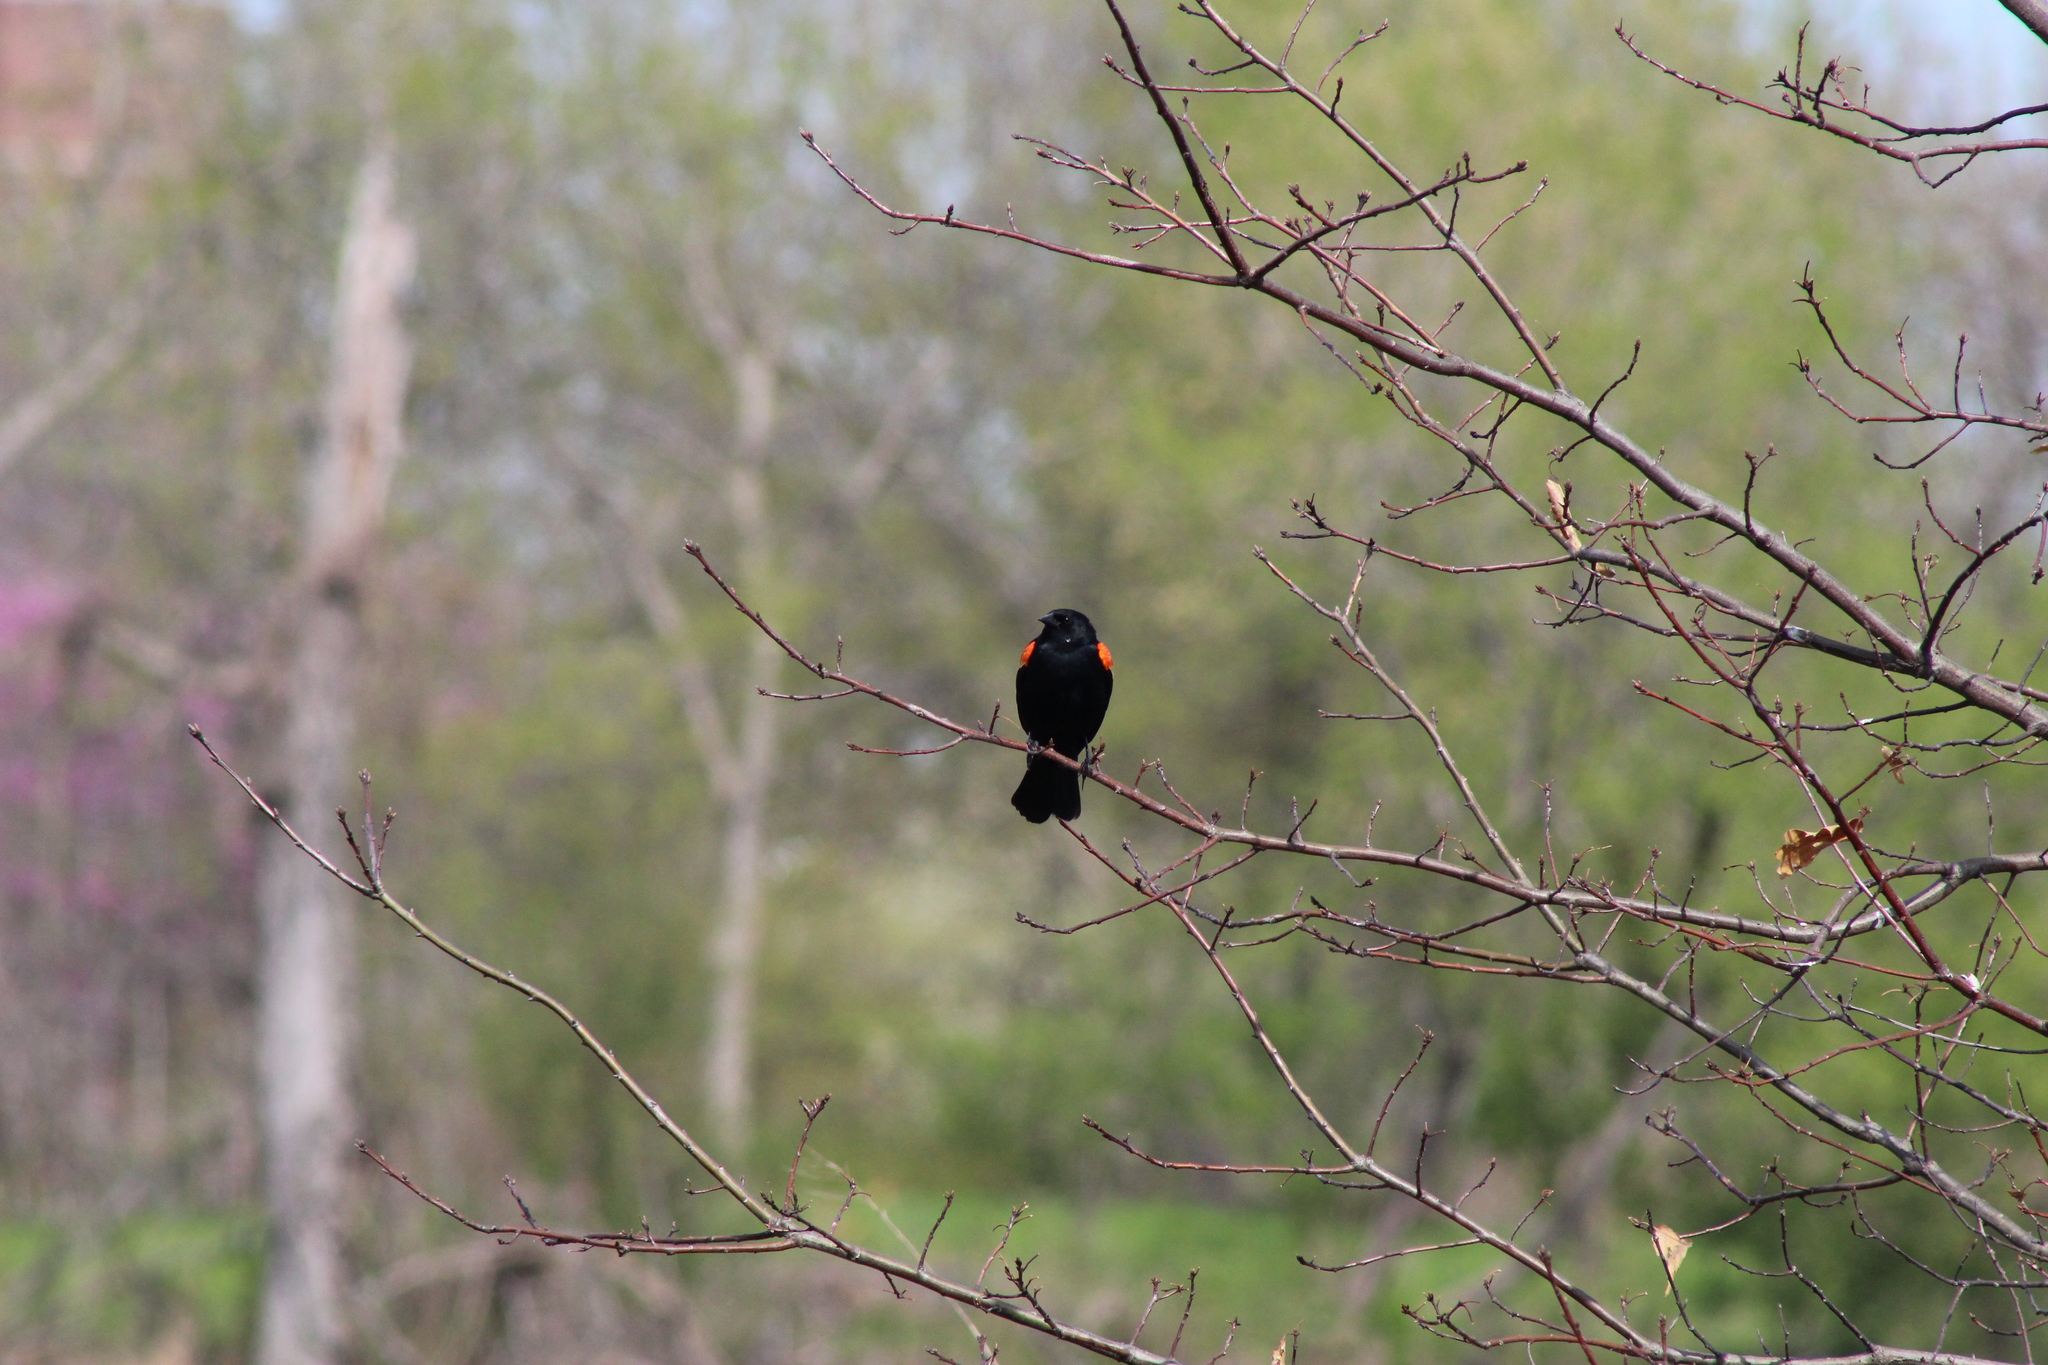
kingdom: Animalia
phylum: Chordata
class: Aves
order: Passeriformes
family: Icteridae
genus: Agelaius
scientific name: Agelaius phoeniceus
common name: Red-winged blackbird
